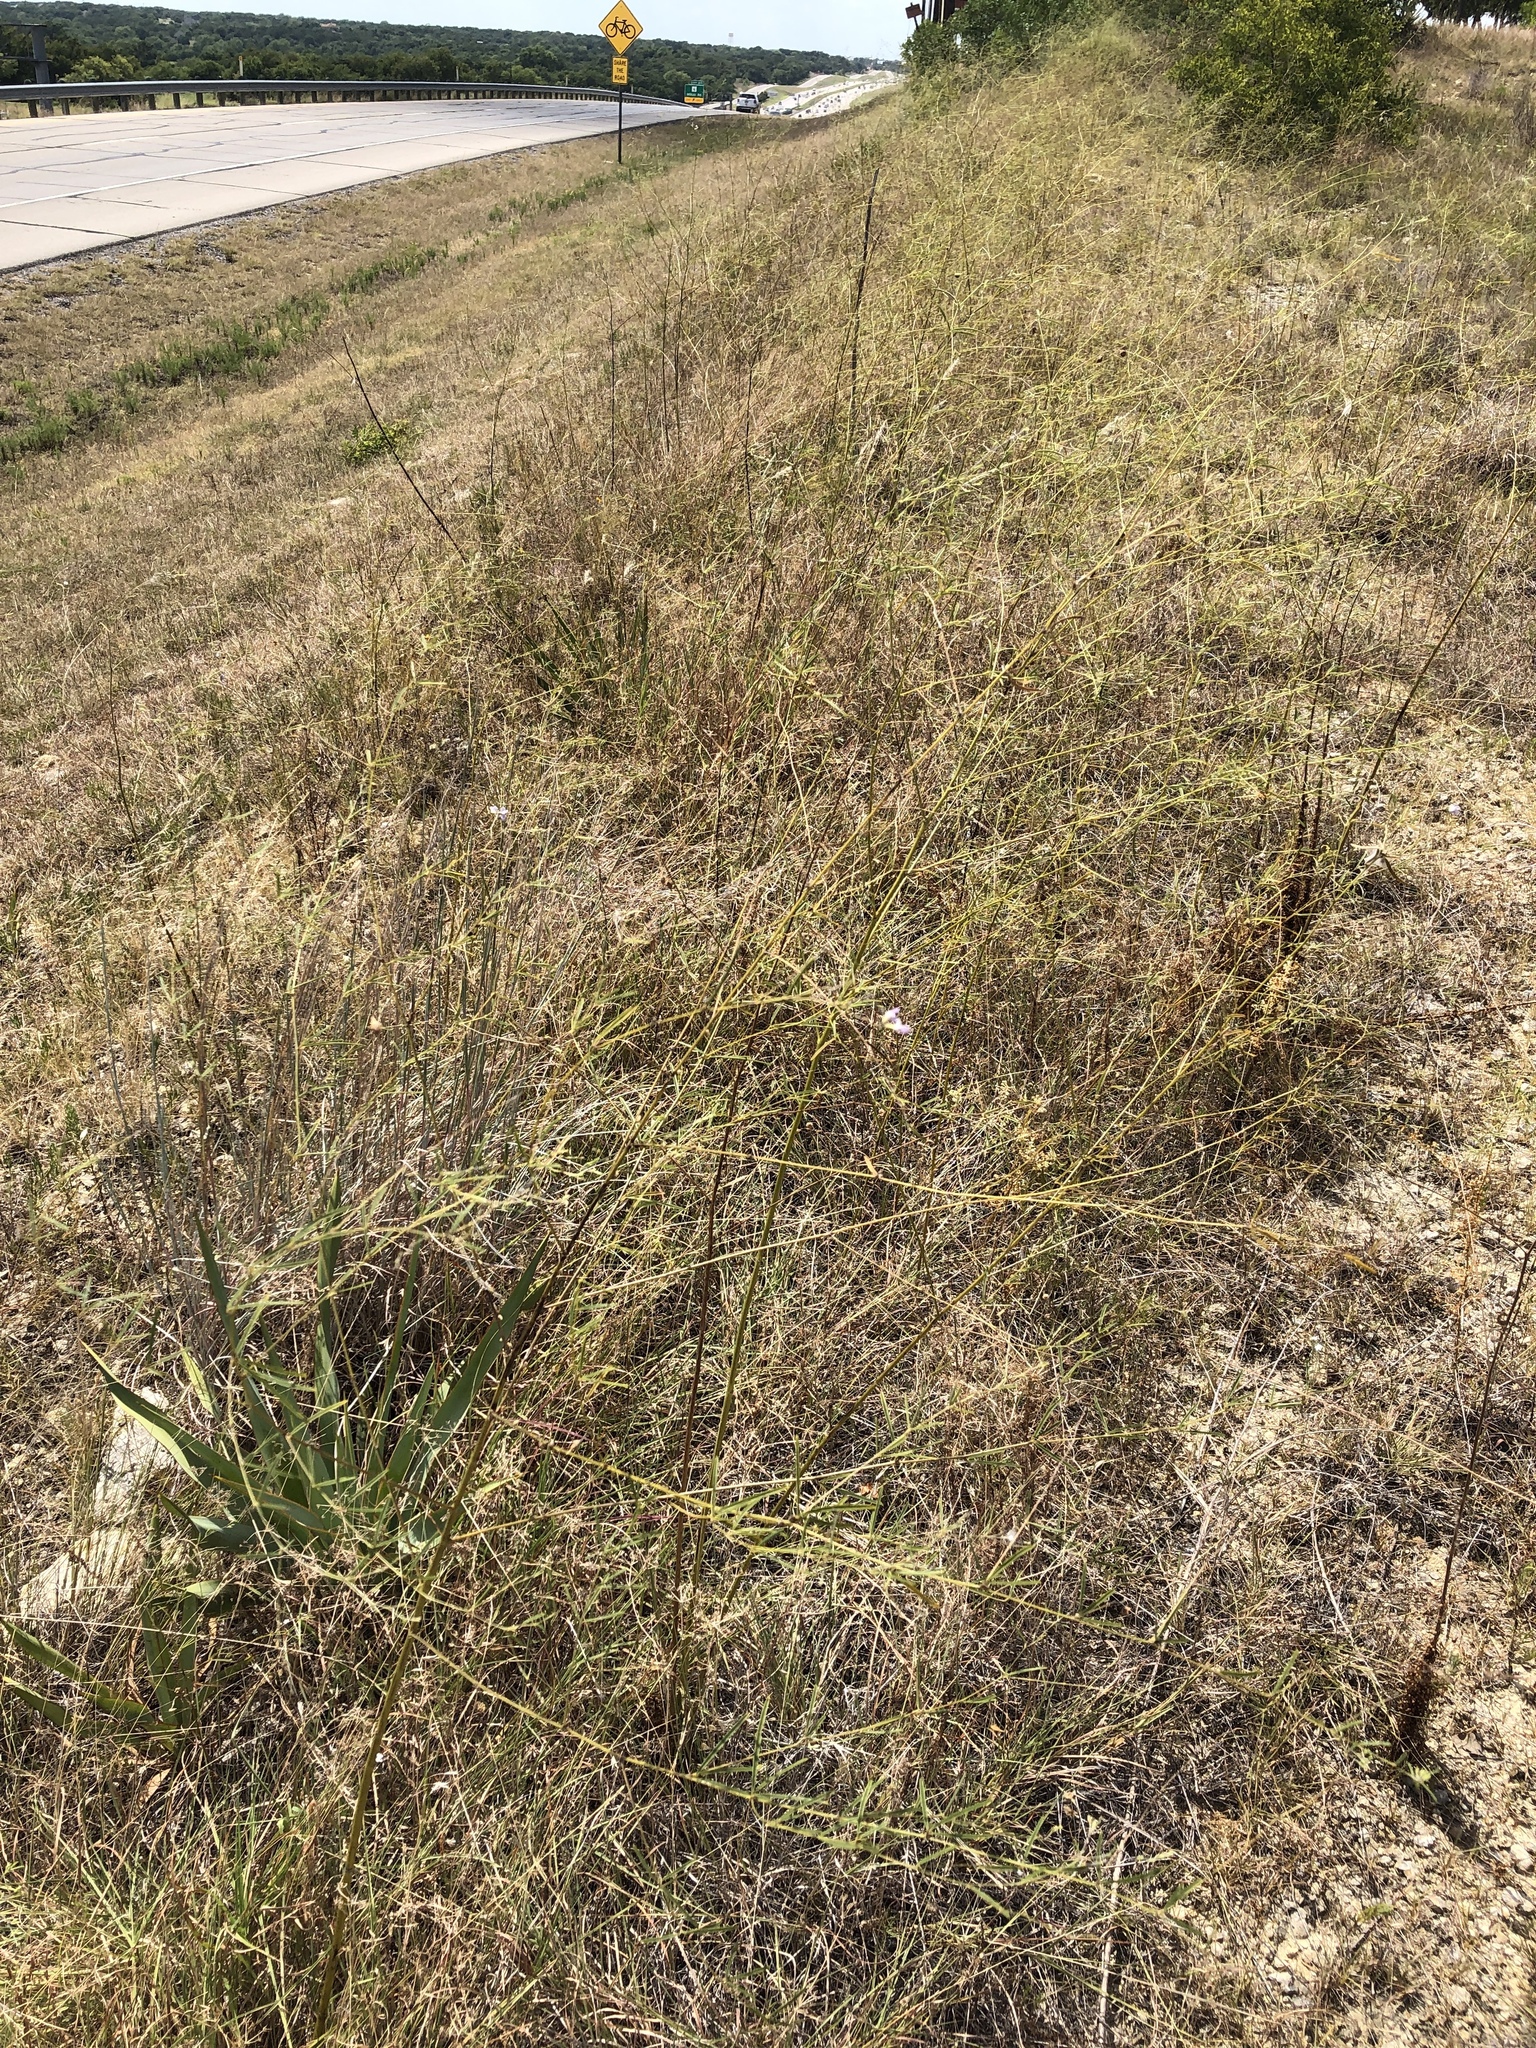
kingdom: Plantae
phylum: Tracheophyta
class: Magnoliopsida
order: Fabales
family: Fabaceae
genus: Pediomelum
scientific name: Pediomelum linearifolium
